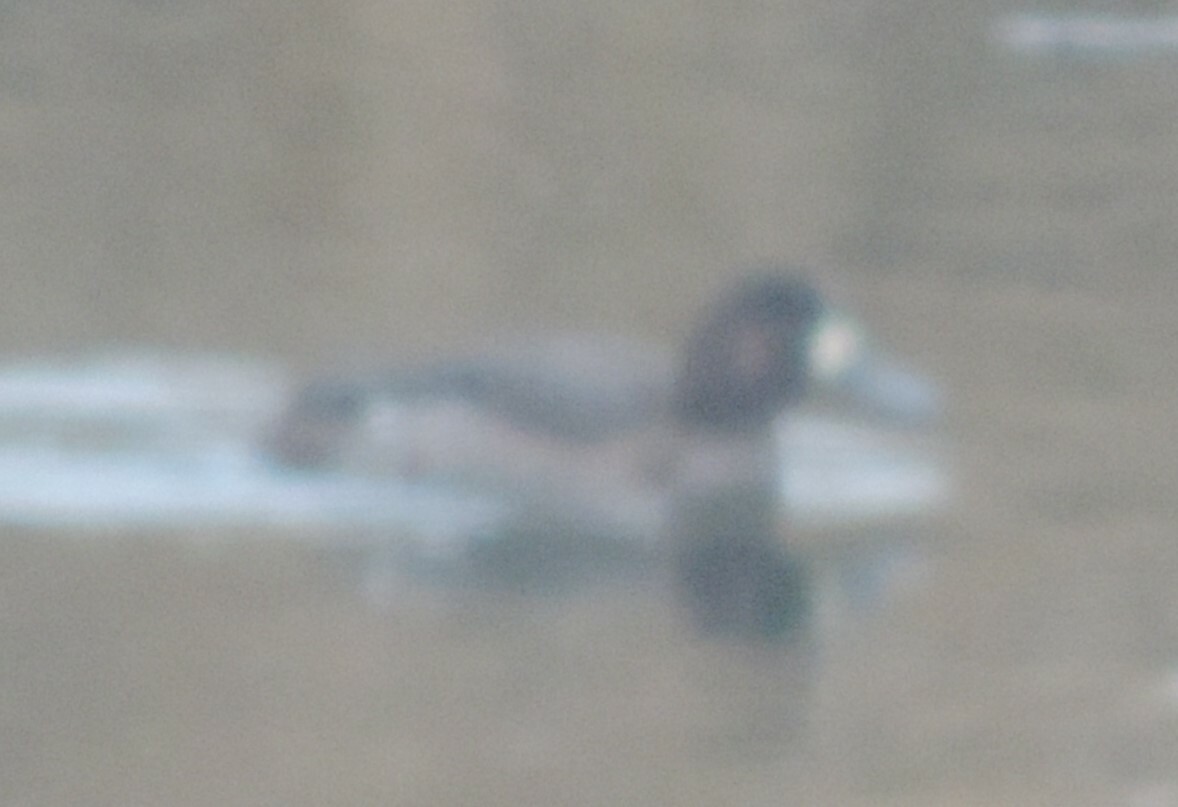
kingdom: Animalia
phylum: Chordata
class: Aves
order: Anseriformes
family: Anatidae
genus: Aythya
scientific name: Aythya marila
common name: Greater scaup
